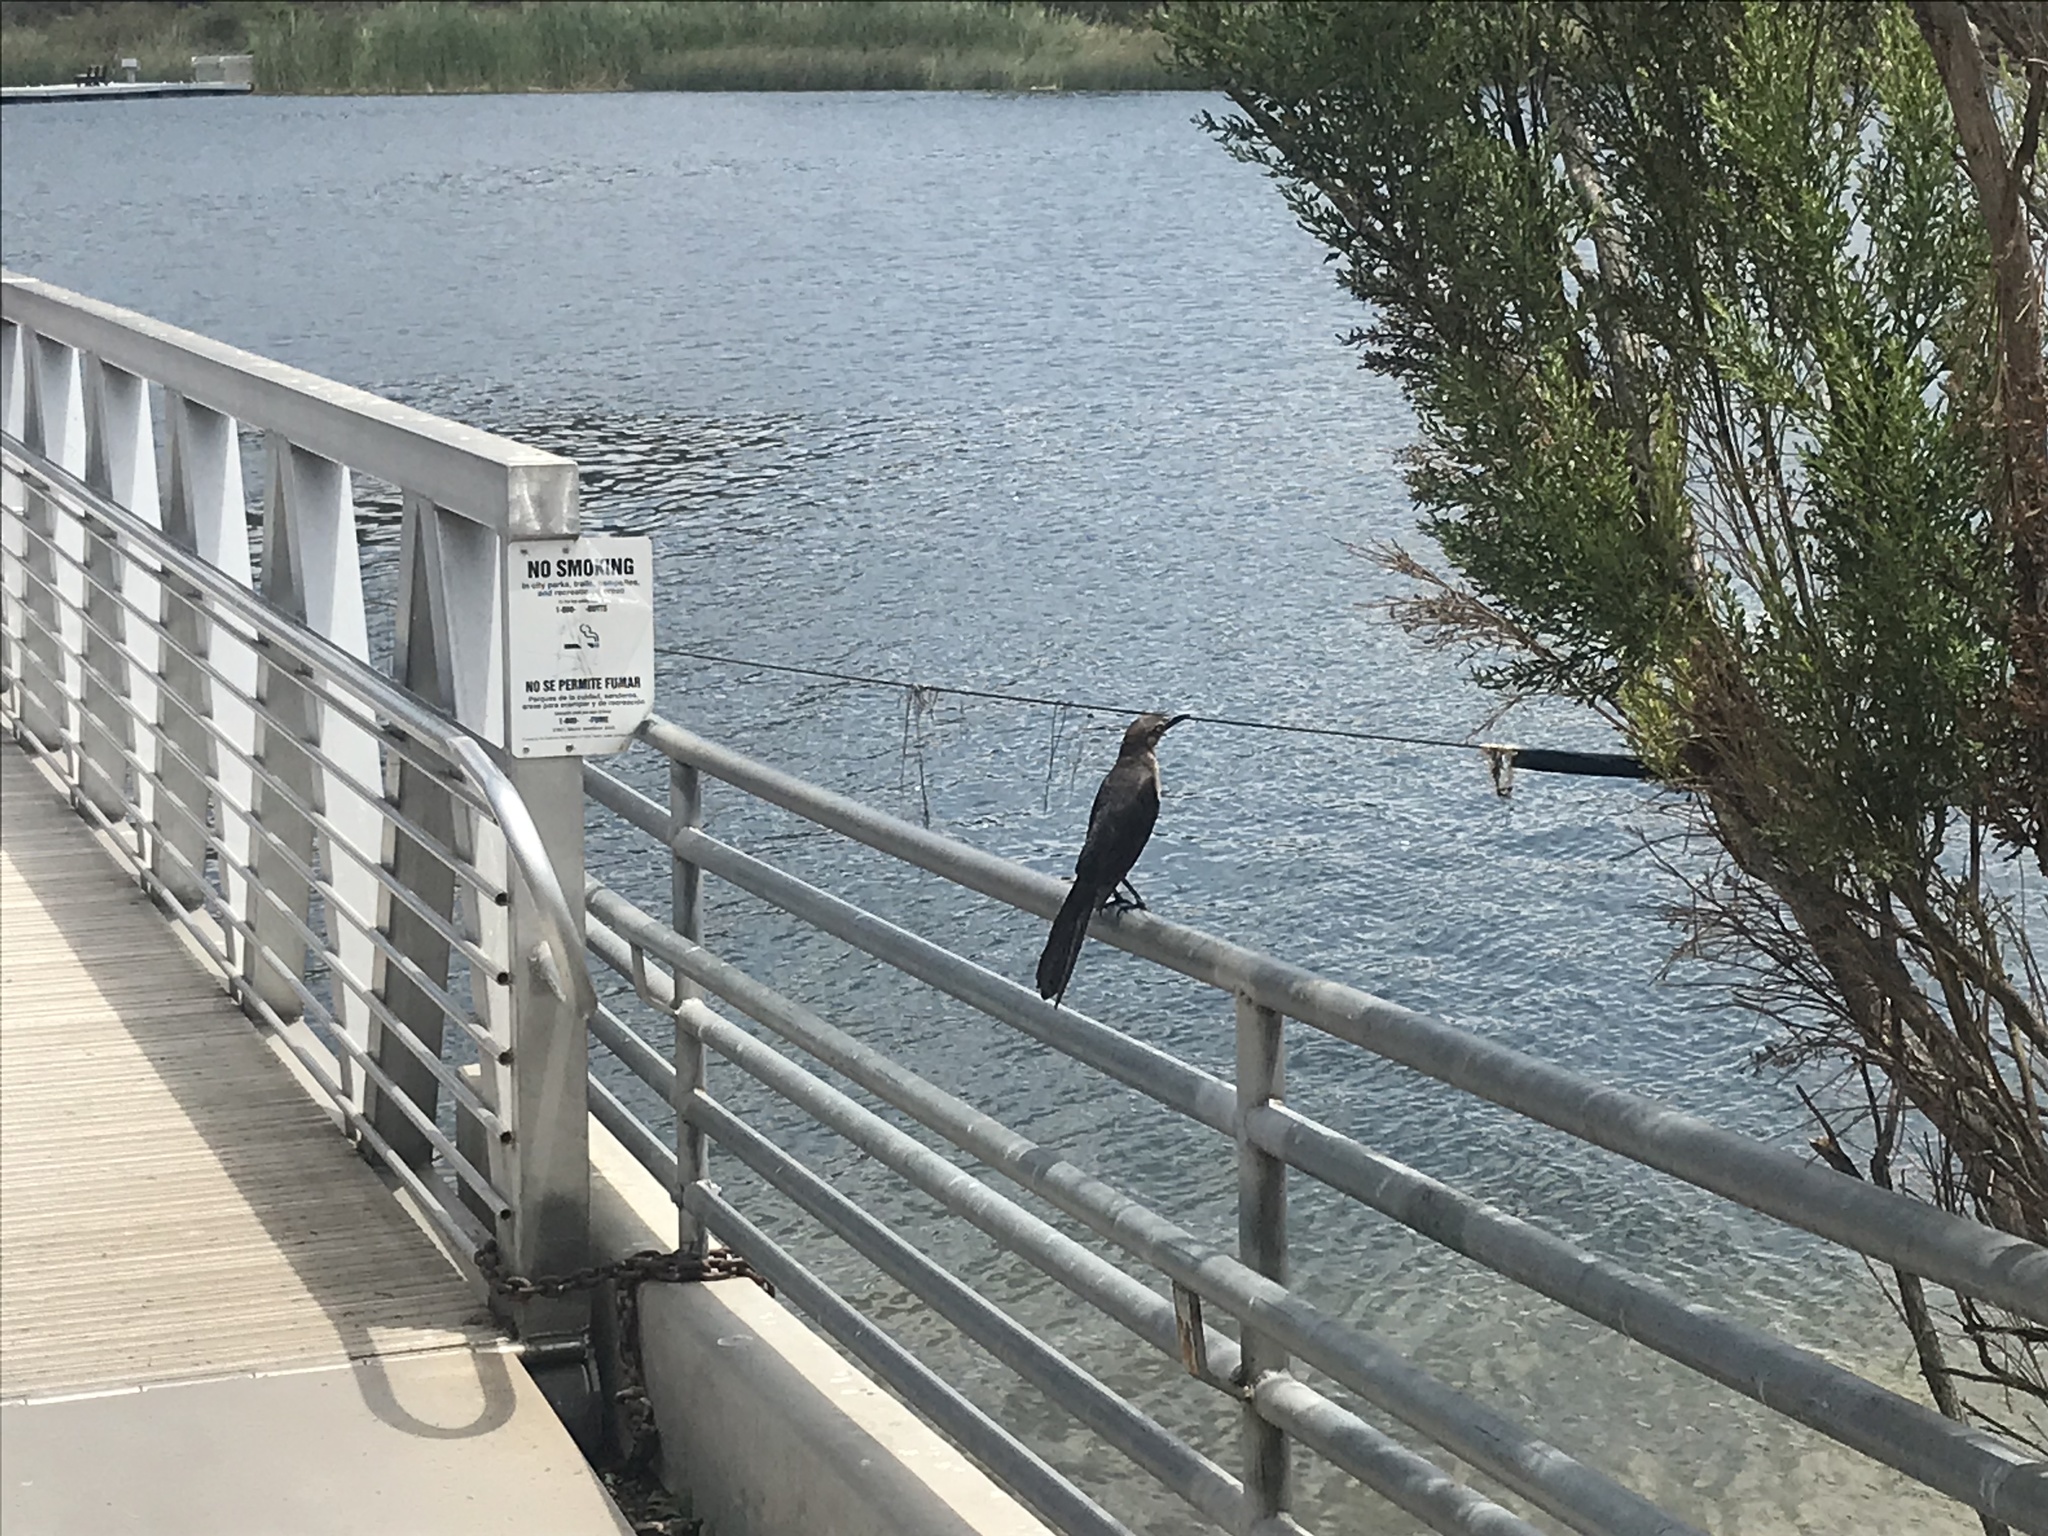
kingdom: Animalia
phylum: Chordata
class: Aves
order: Passeriformes
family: Icteridae
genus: Quiscalus
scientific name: Quiscalus mexicanus
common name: Great-tailed grackle
